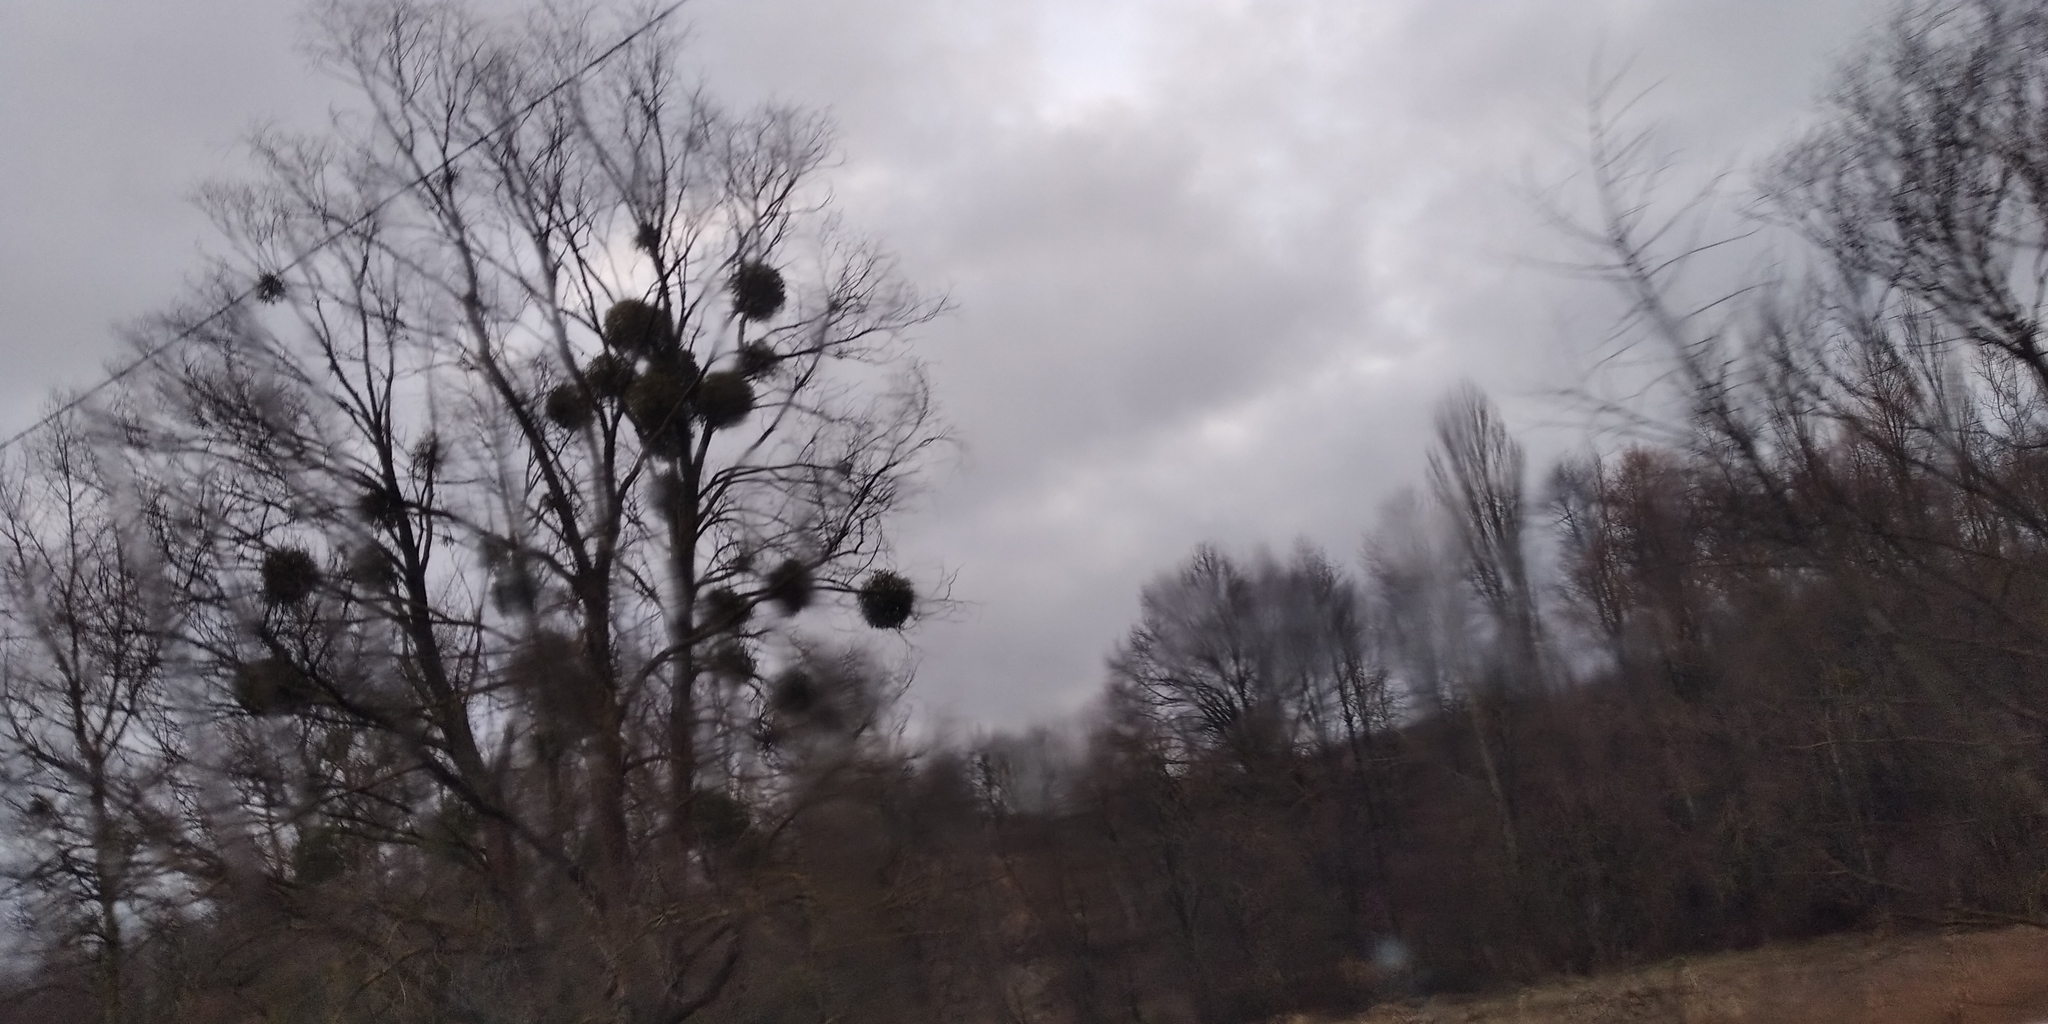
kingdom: Plantae
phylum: Tracheophyta
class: Magnoliopsida
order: Santalales
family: Viscaceae
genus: Viscum
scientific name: Viscum album
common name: Mistletoe
